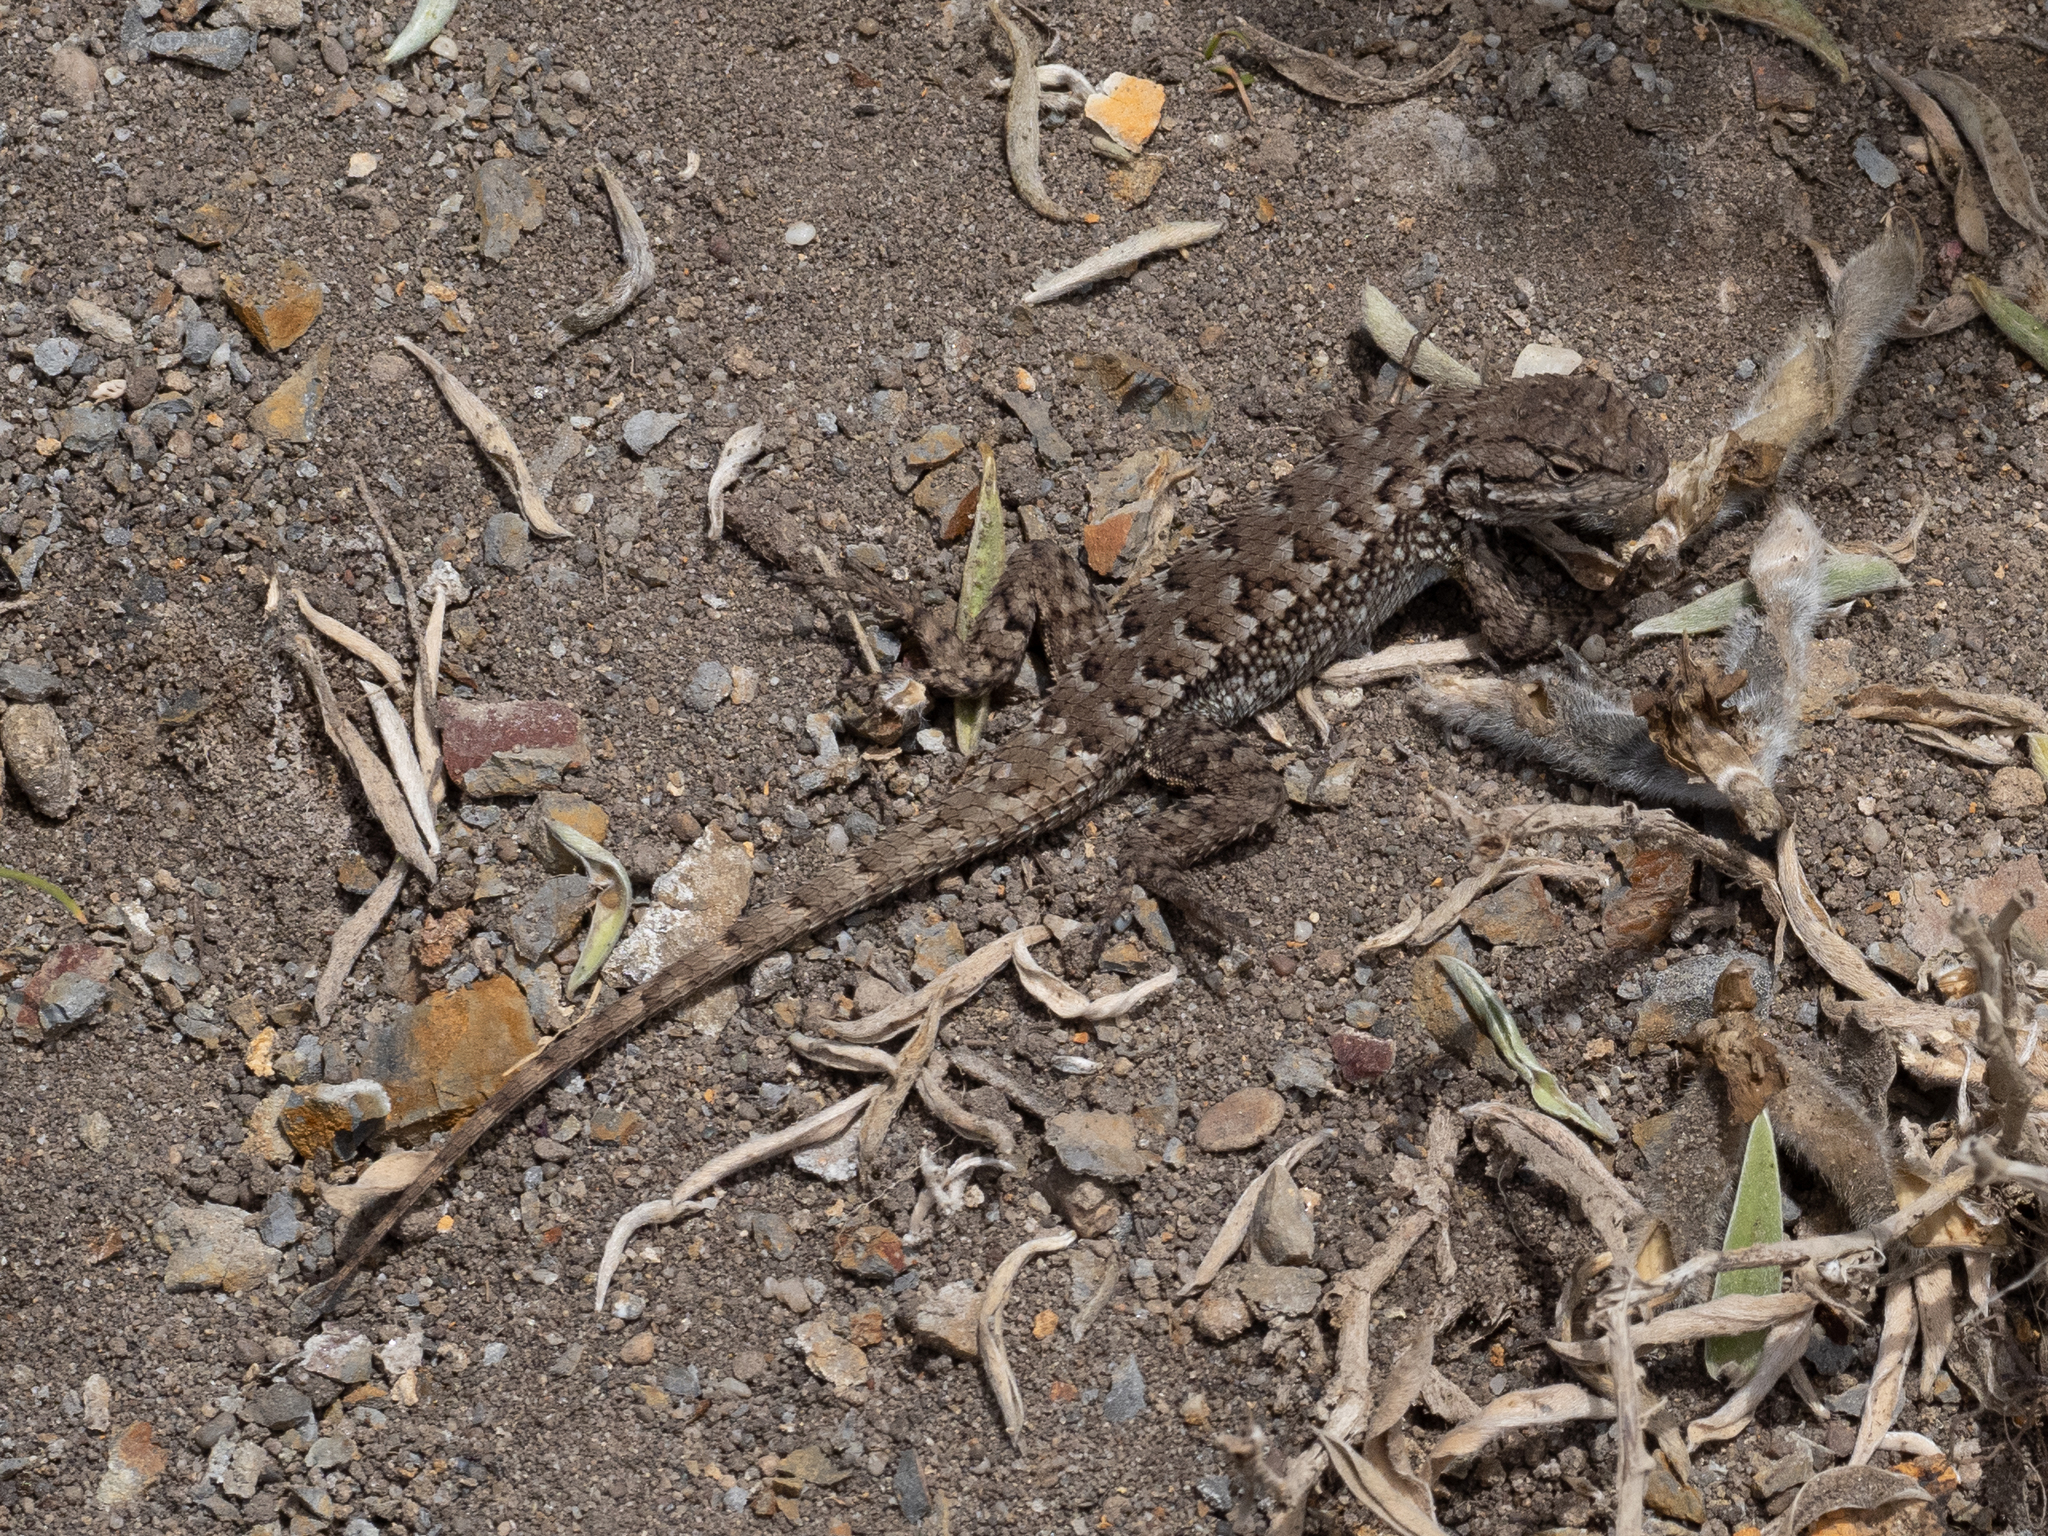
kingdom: Animalia
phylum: Chordata
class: Squamata
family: Phrynosomatidae
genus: Sceloporus
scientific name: Sceloporus occidentalis
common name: Western fence lizard
